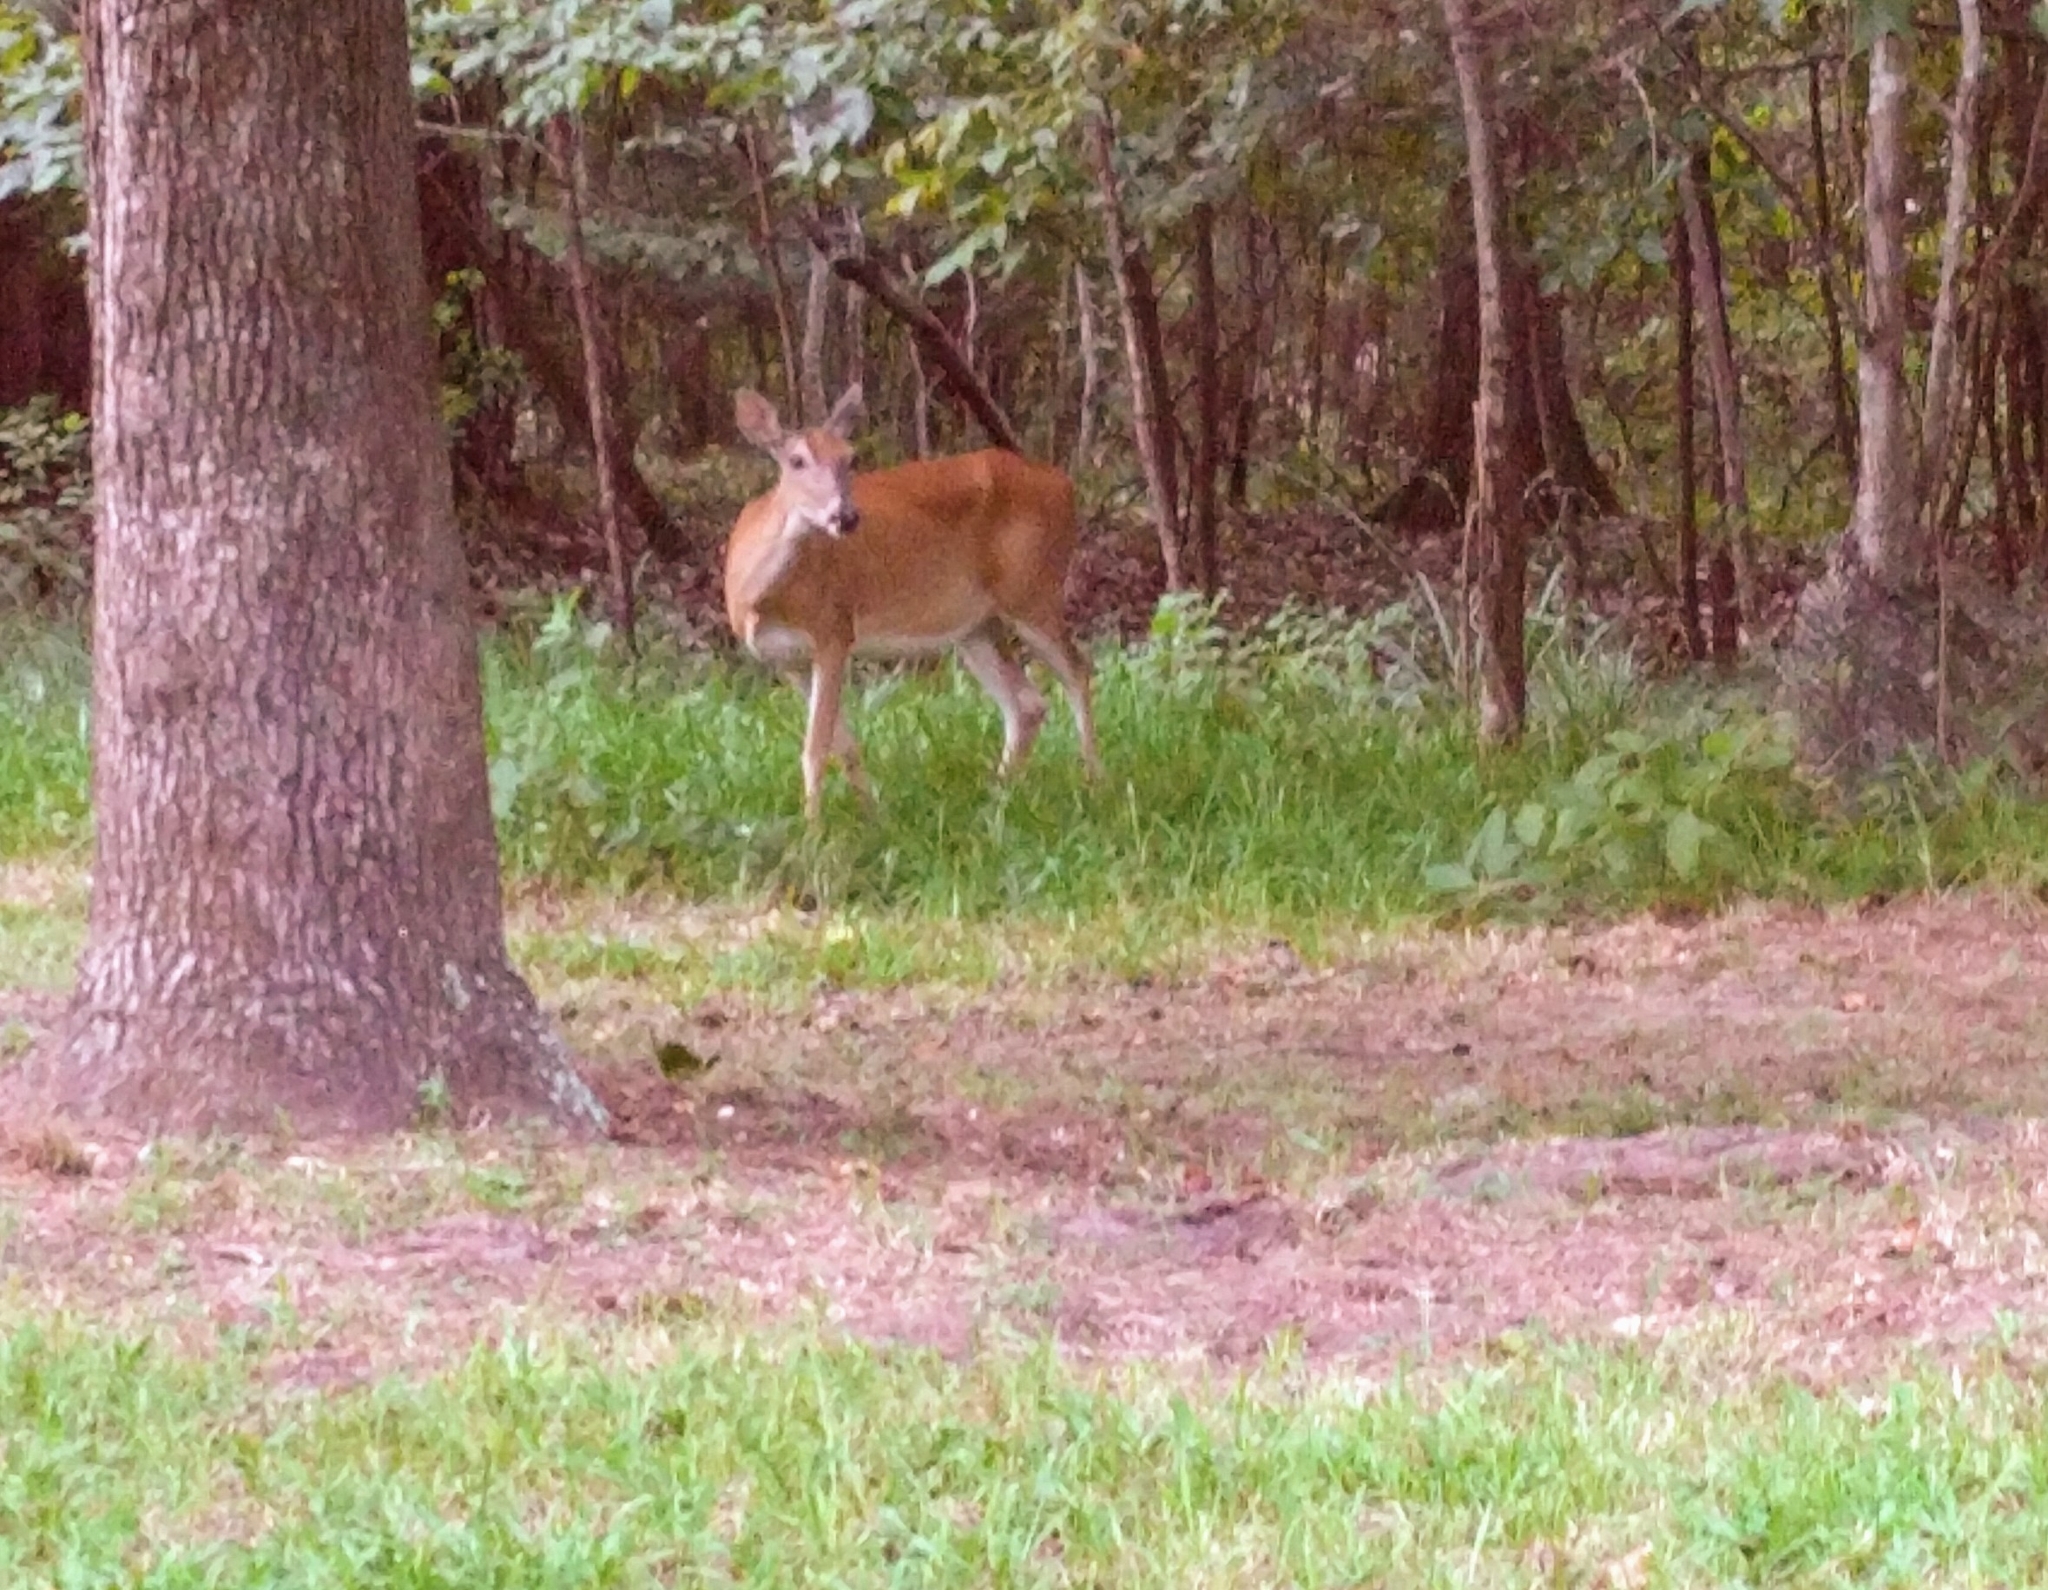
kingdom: Animalia
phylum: Chordata
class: Mammalia
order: Artiodactyla
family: Cervidae
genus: Odocoileus
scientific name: Odocoileus virginianus
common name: White-tailed deer
